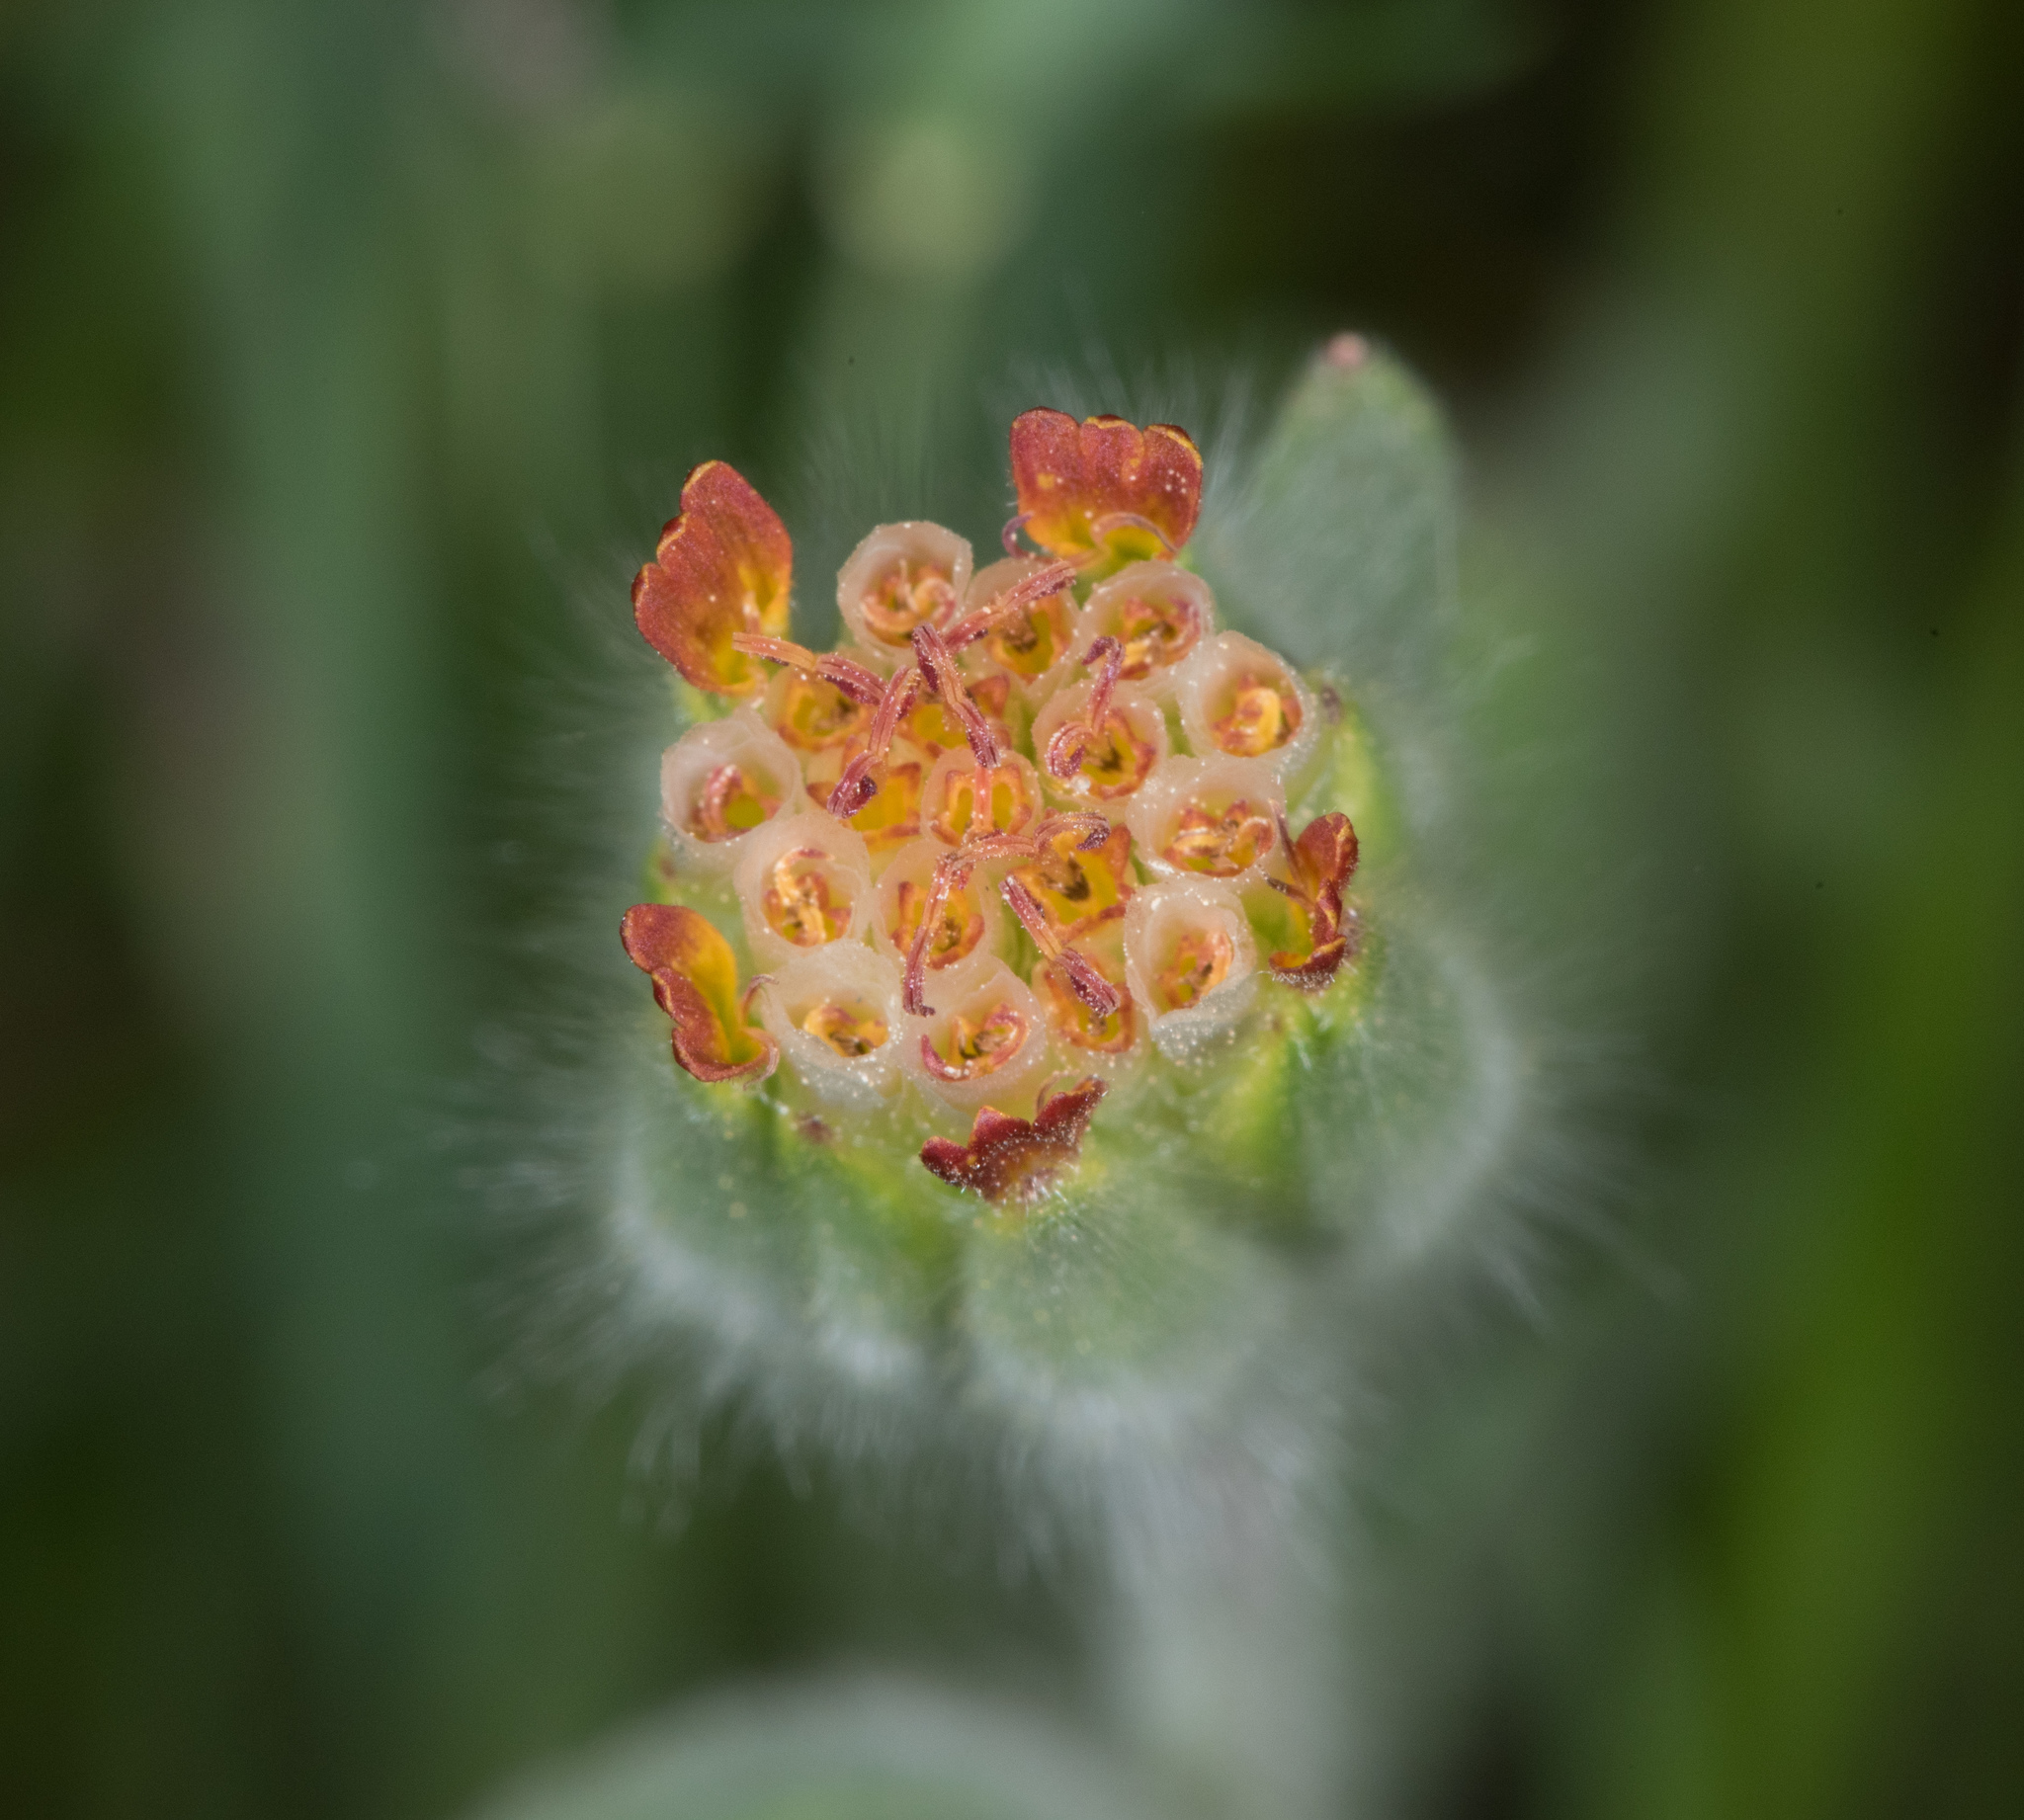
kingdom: Plantae
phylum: Tracheophyta
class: Magnoliopsida
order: Asterales
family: Asteraceae
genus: Achyrachaena
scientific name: Achyrachaena mollis
